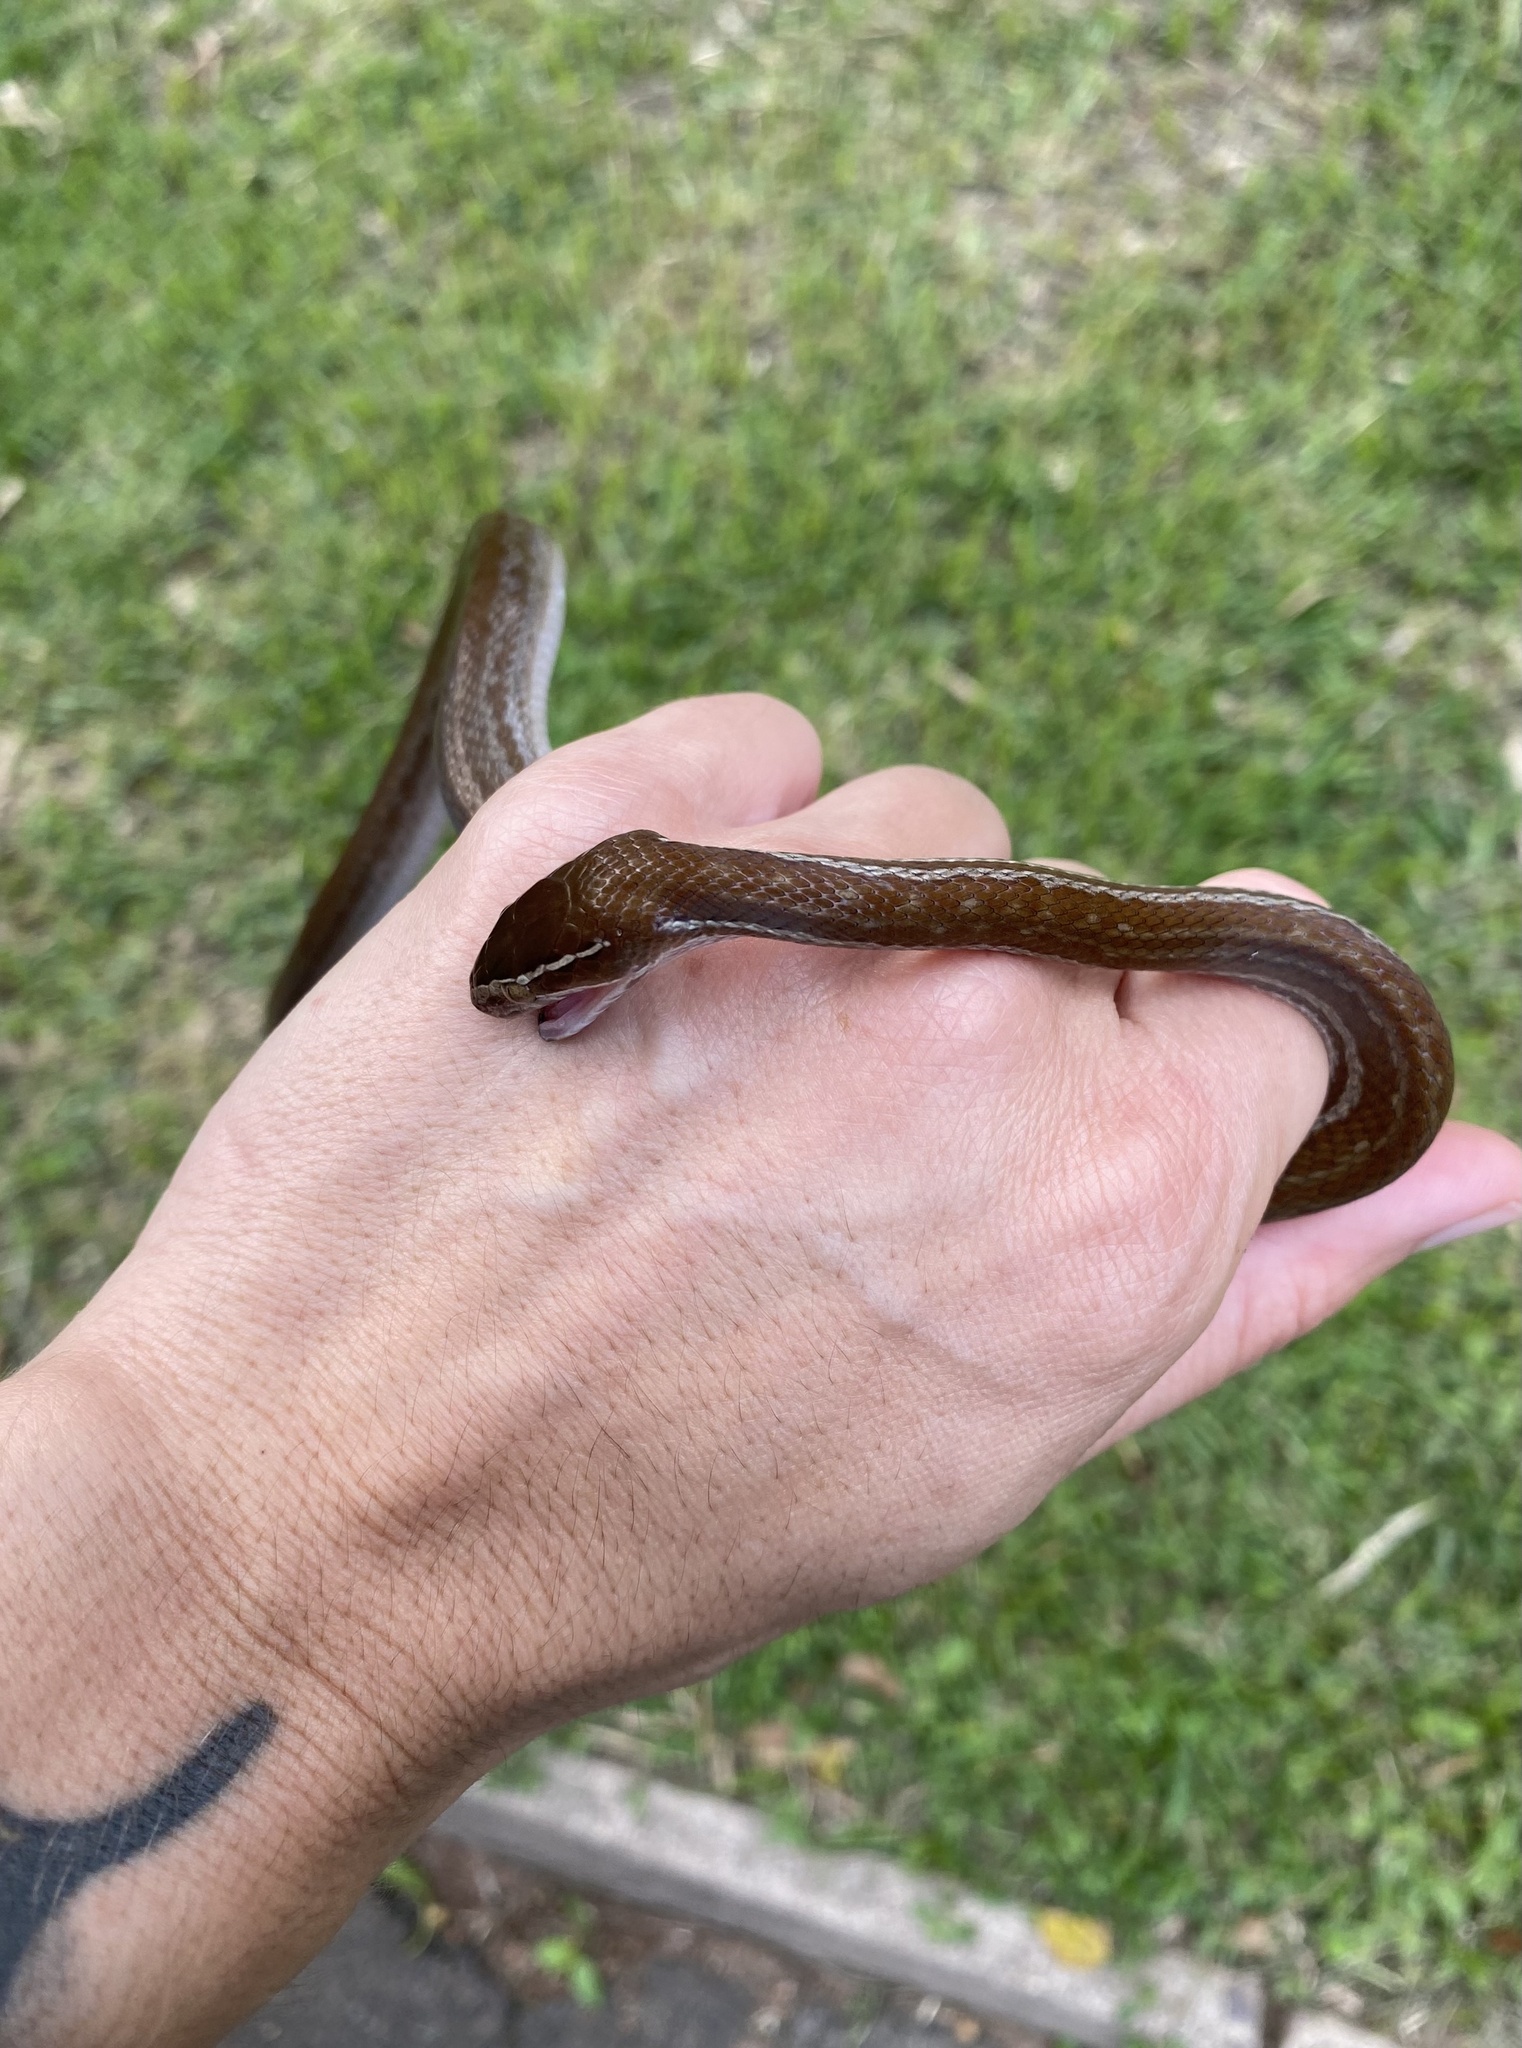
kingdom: Animalia
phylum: Chordata
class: Squamata
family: Lamprophiidae
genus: Boaedon
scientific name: Boaedon capensis
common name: Brown house snake
